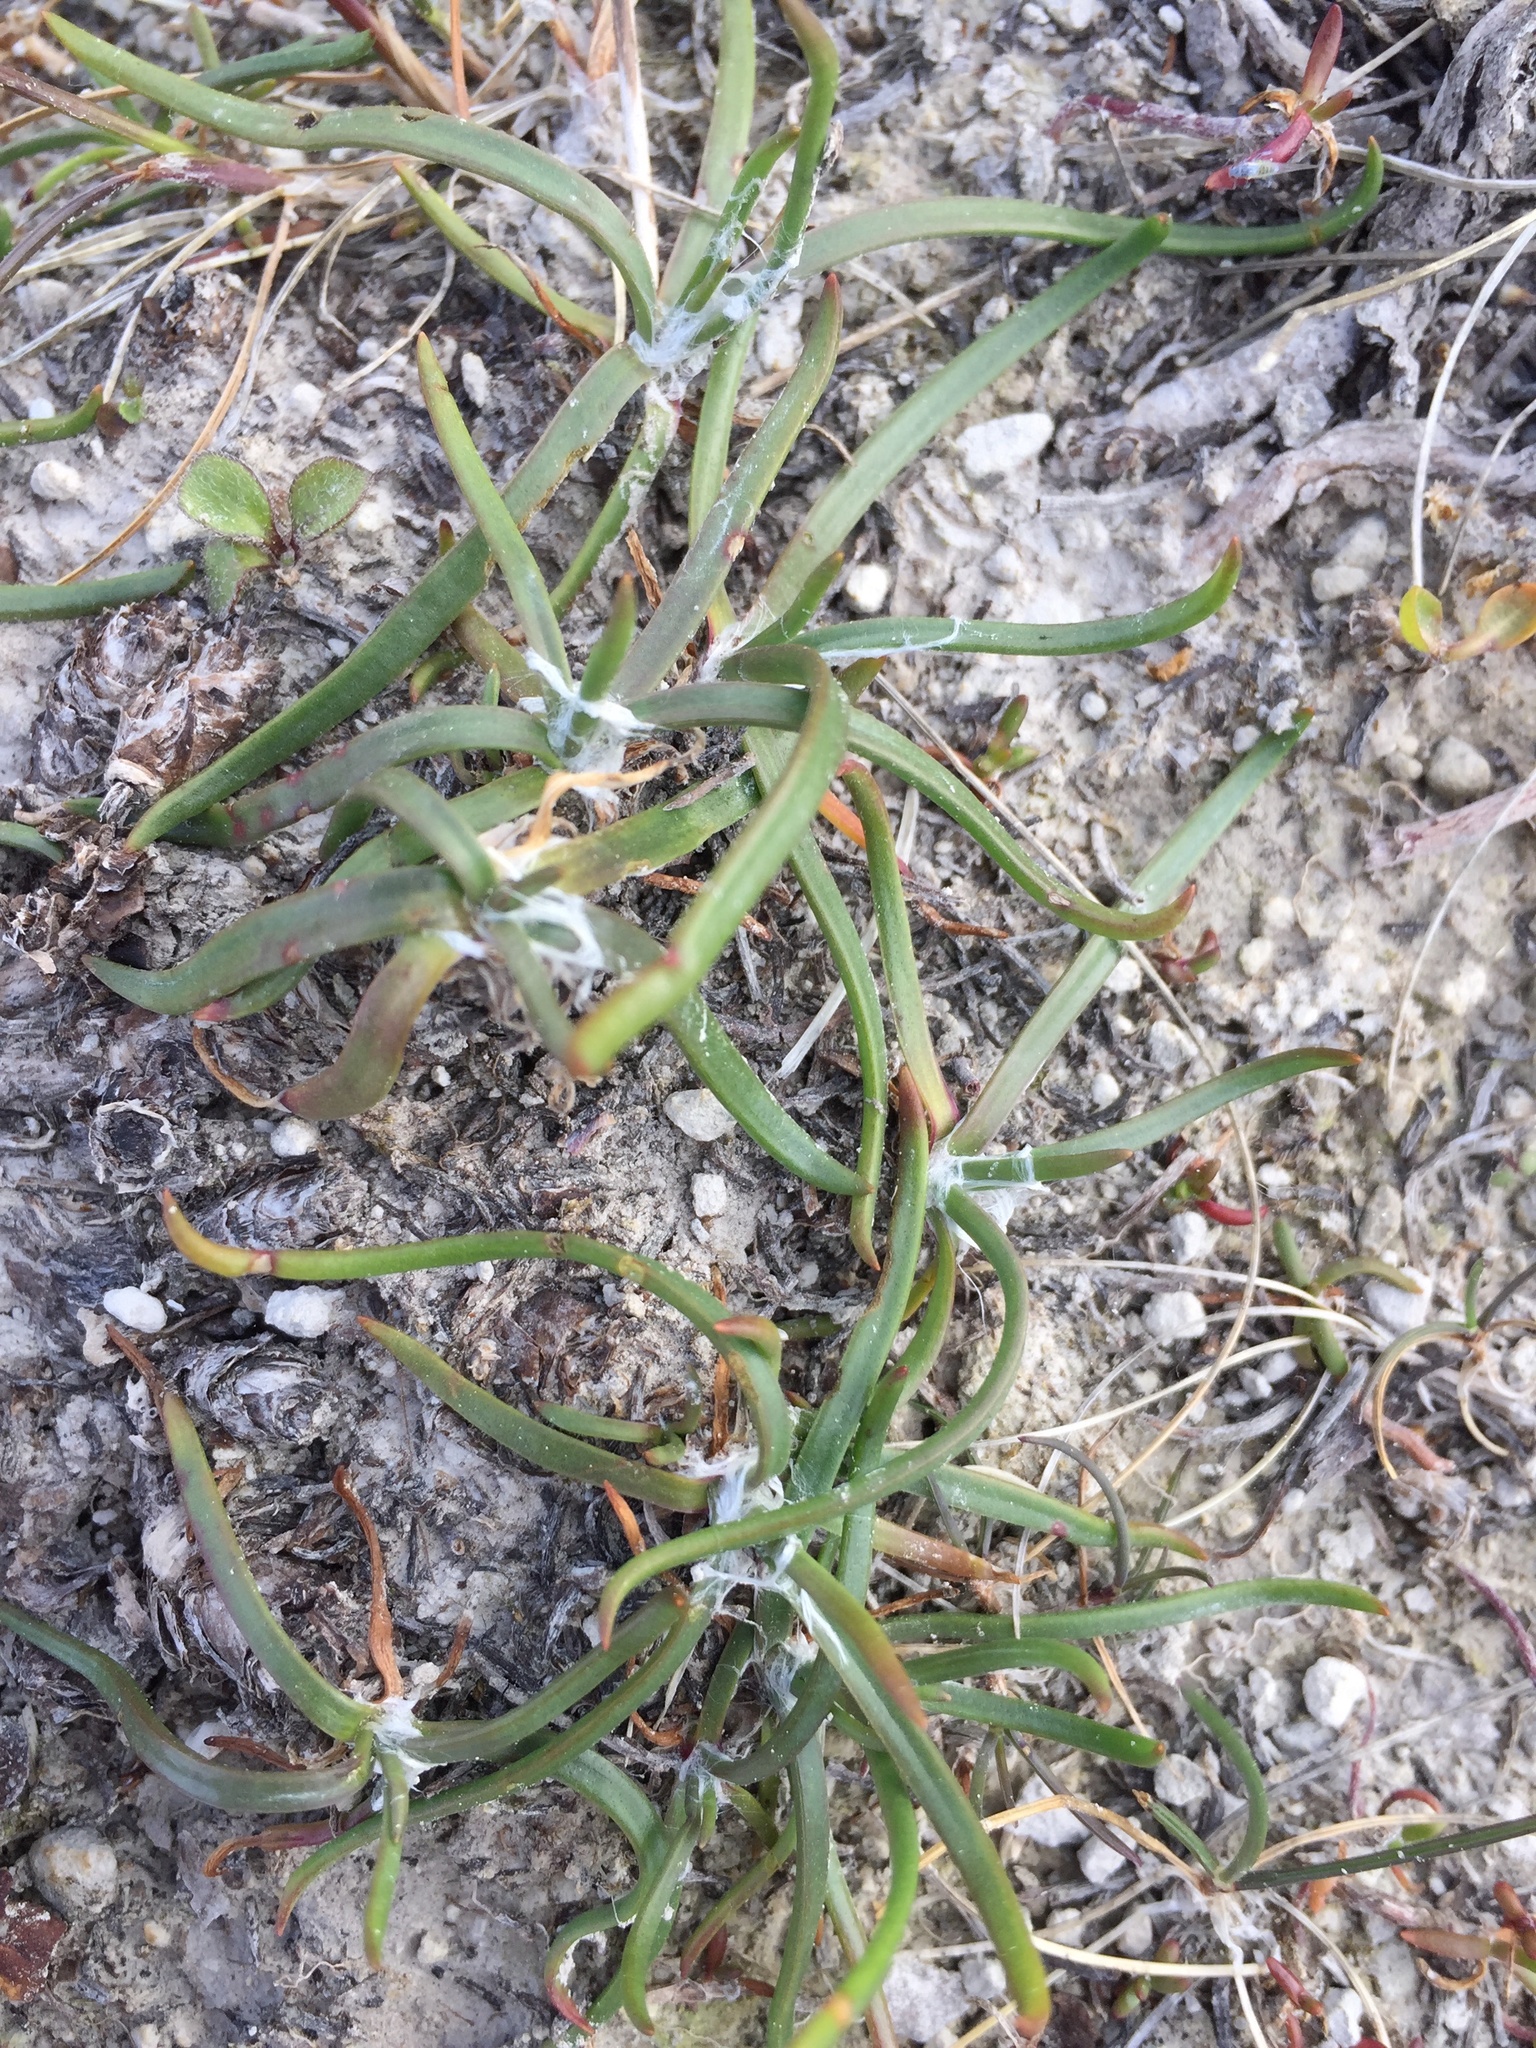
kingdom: Plantae
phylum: Tracheophyta
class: Magnoliopsida
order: Lamiales
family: Plantaginaceae
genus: Plantago
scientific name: Plantago maritima
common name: Sea plantain
